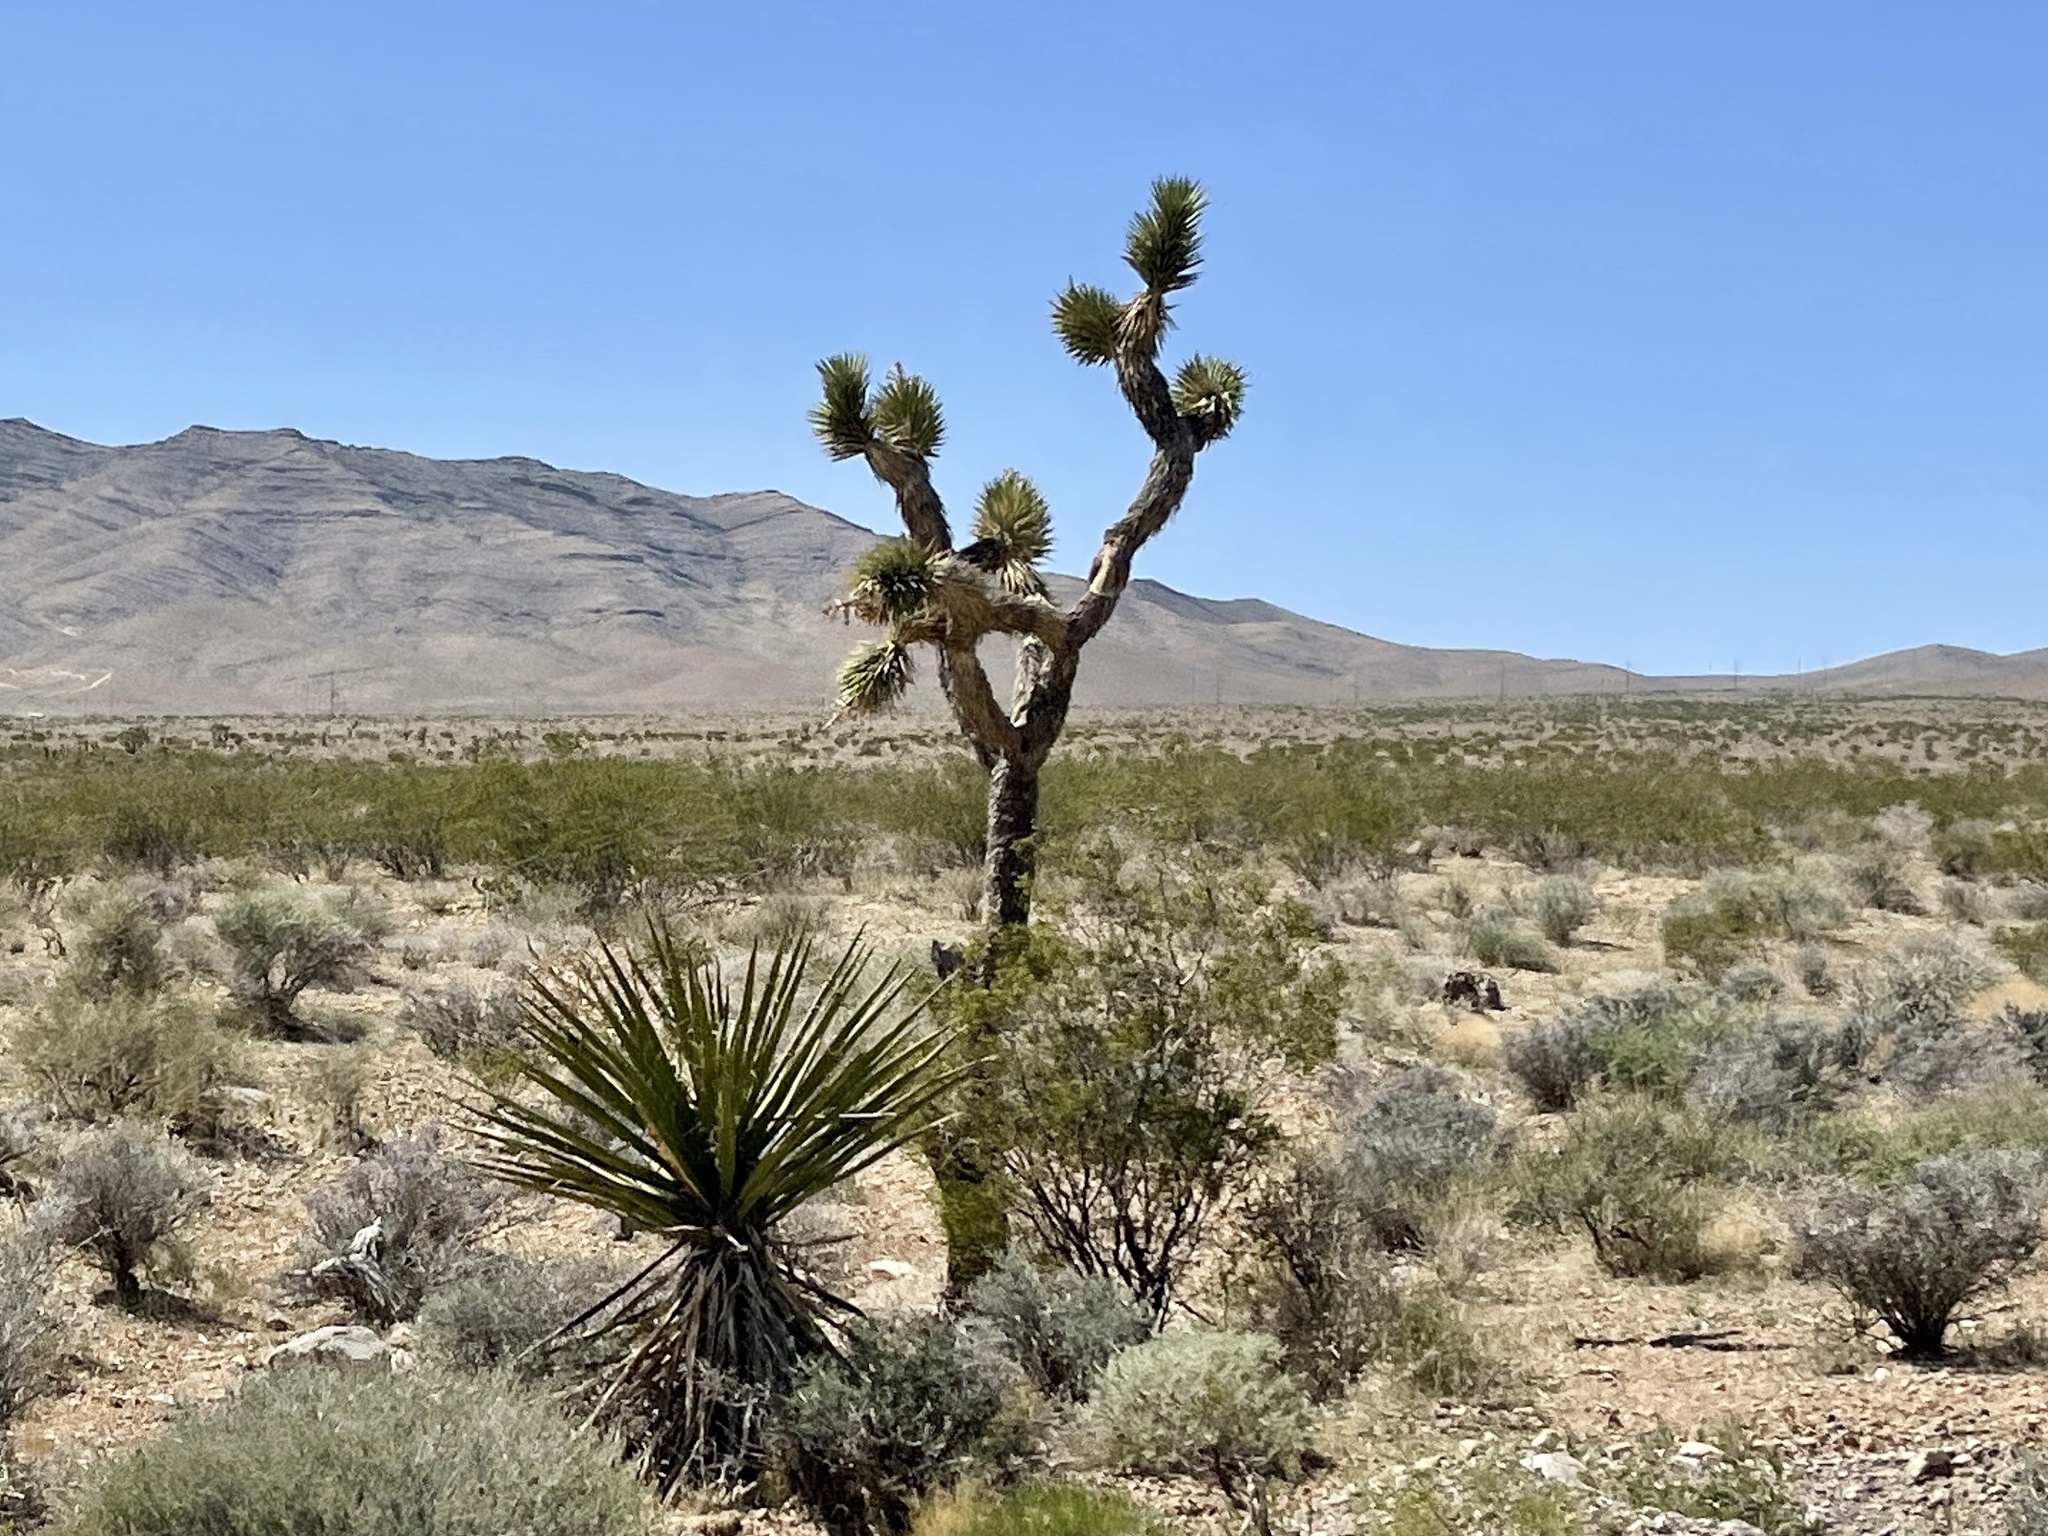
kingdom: Plantae
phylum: Tracheophyta
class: Liliopsida
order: Asparagales
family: Asparagaceae
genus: Yucca
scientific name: Yucca brevifolia
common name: Joshua tree
